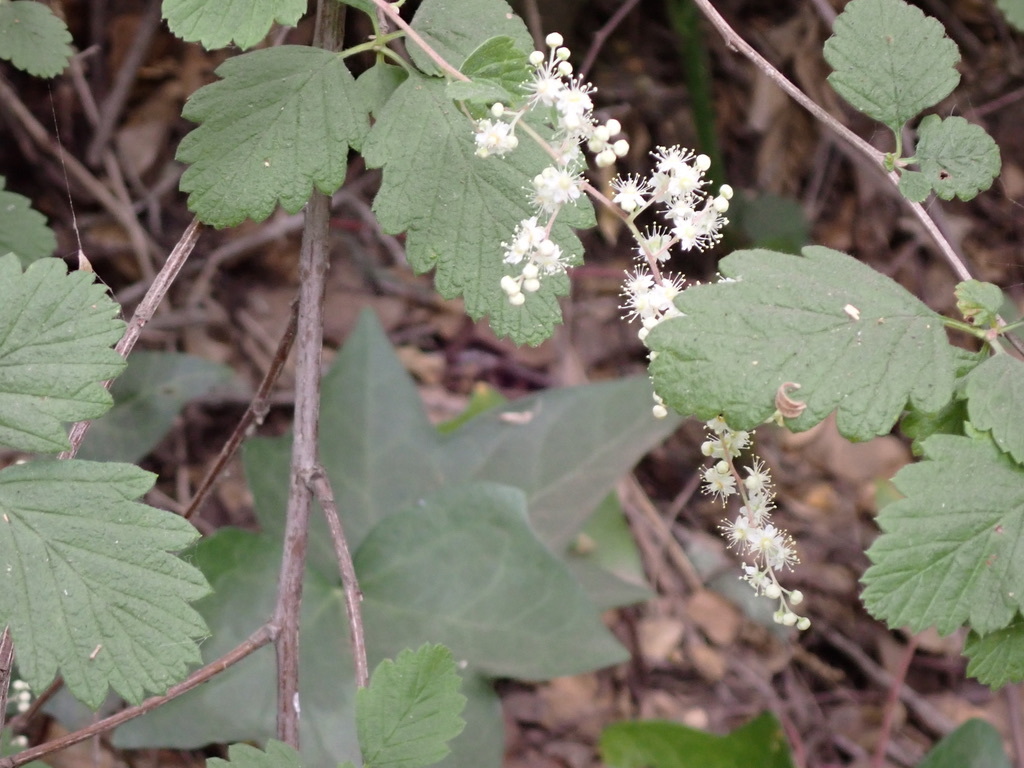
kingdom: Plantae
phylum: Tracheophyta
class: Magnoliopsida
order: Rosales
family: Rosaceae
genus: Holodiscus
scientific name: Holodiscus discolor
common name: Oceanspray
